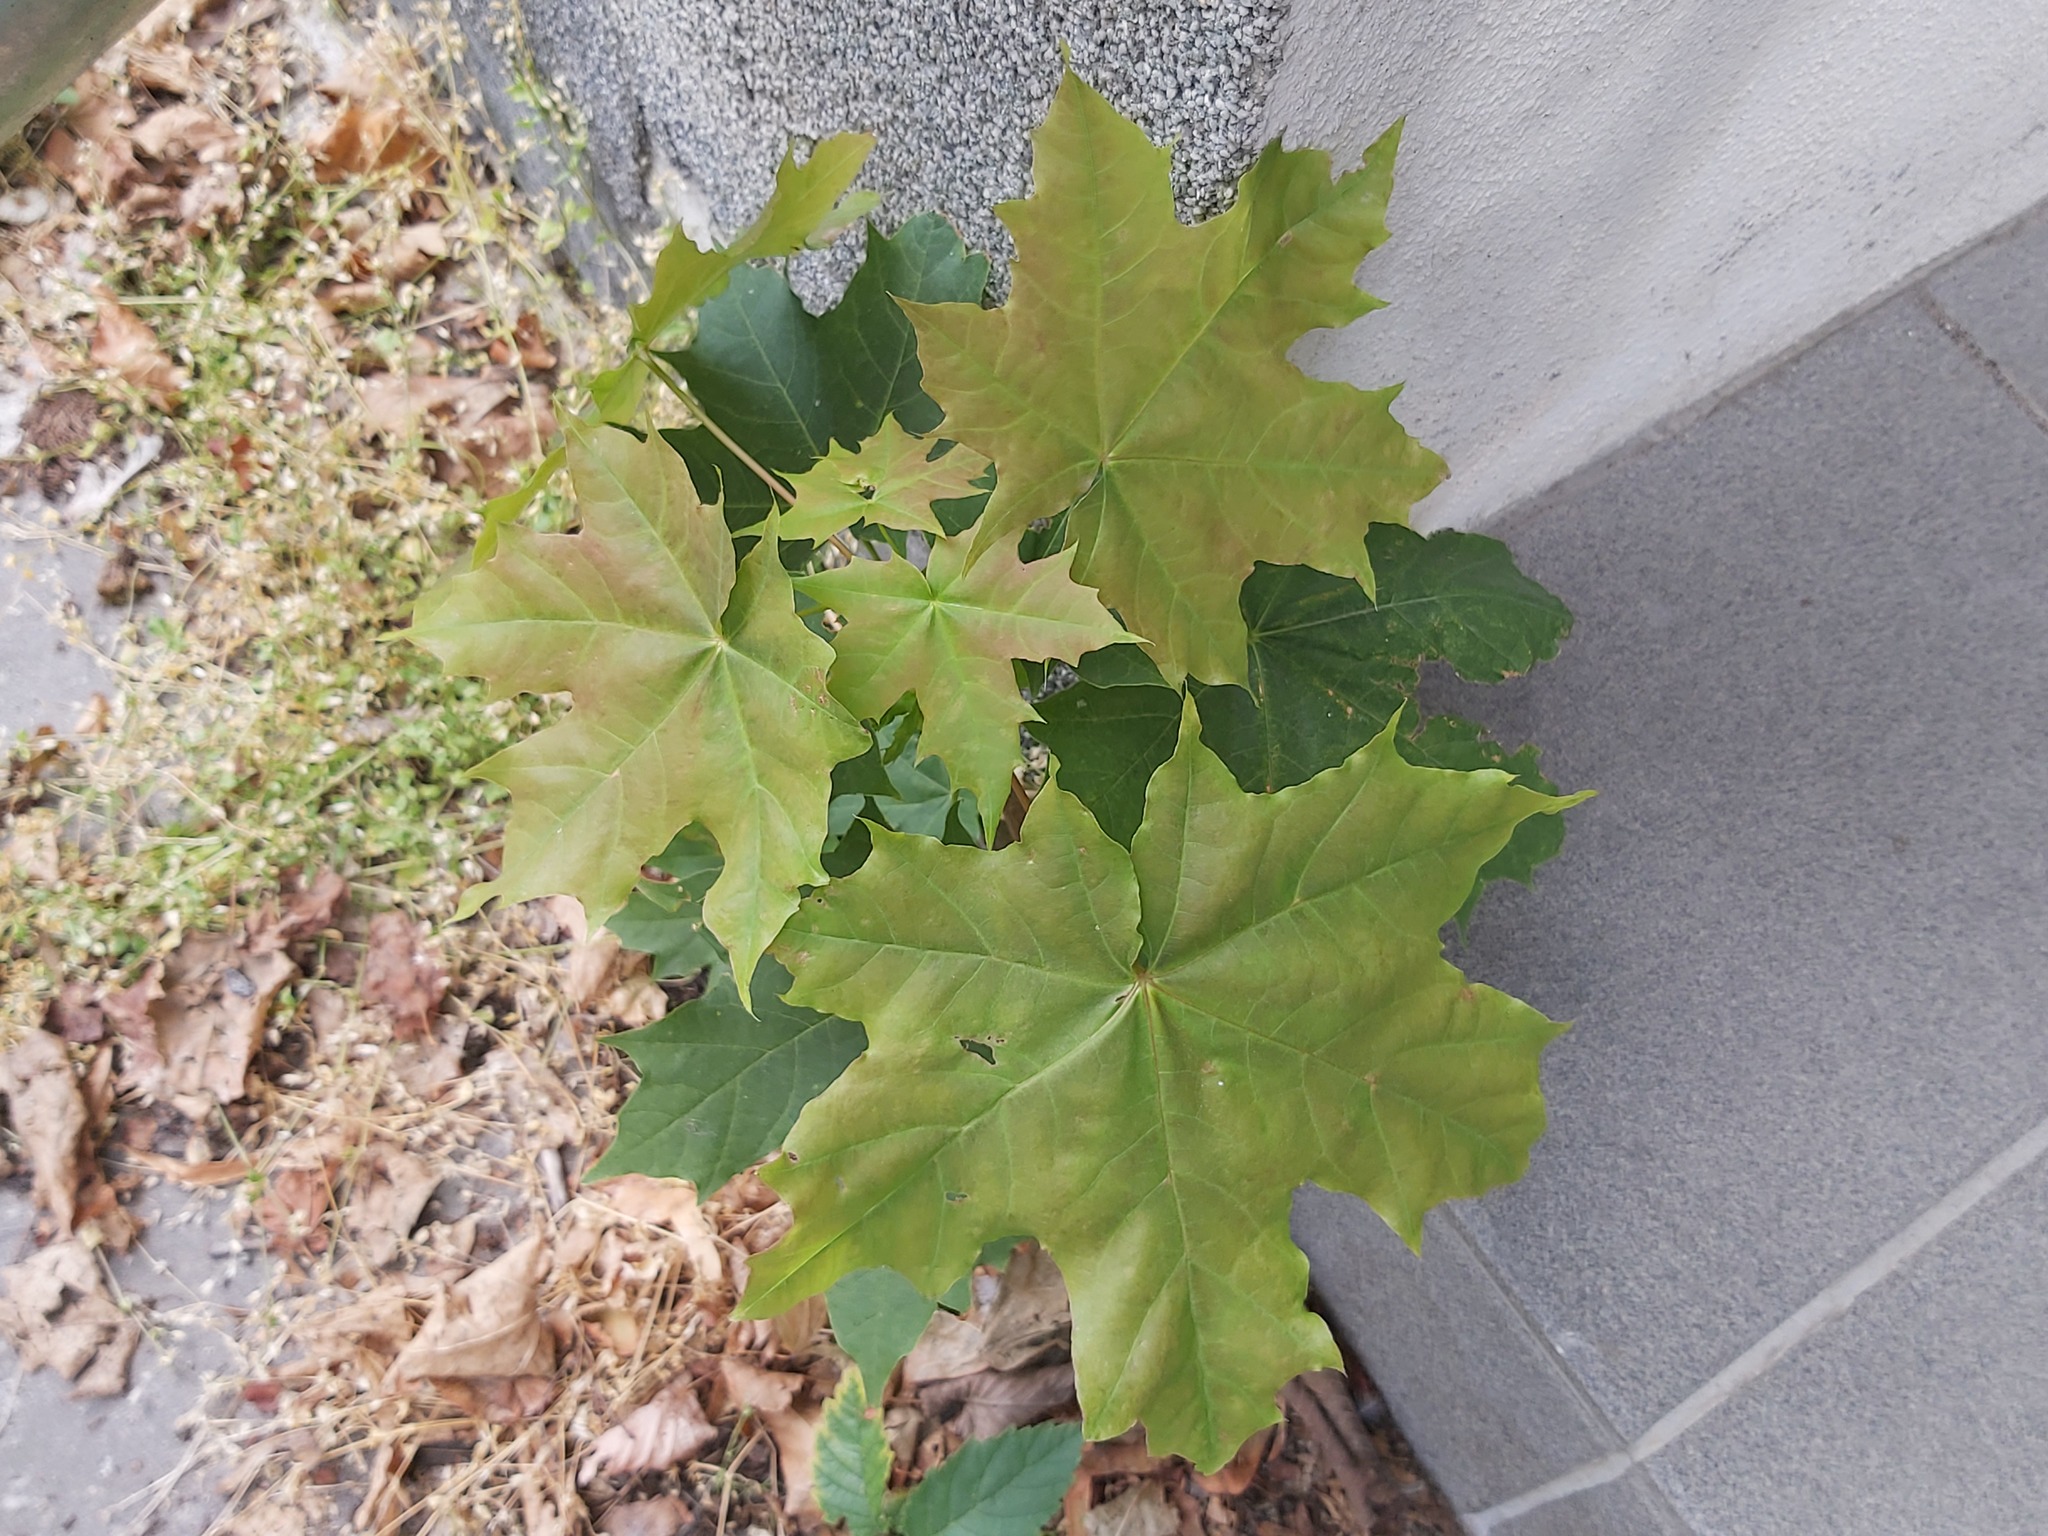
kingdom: Plantae
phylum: Tracheophyta
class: Magnoliopsida
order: Sapindales
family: Sapindaceae
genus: Acer
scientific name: Acer platanoides
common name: Norway maple
